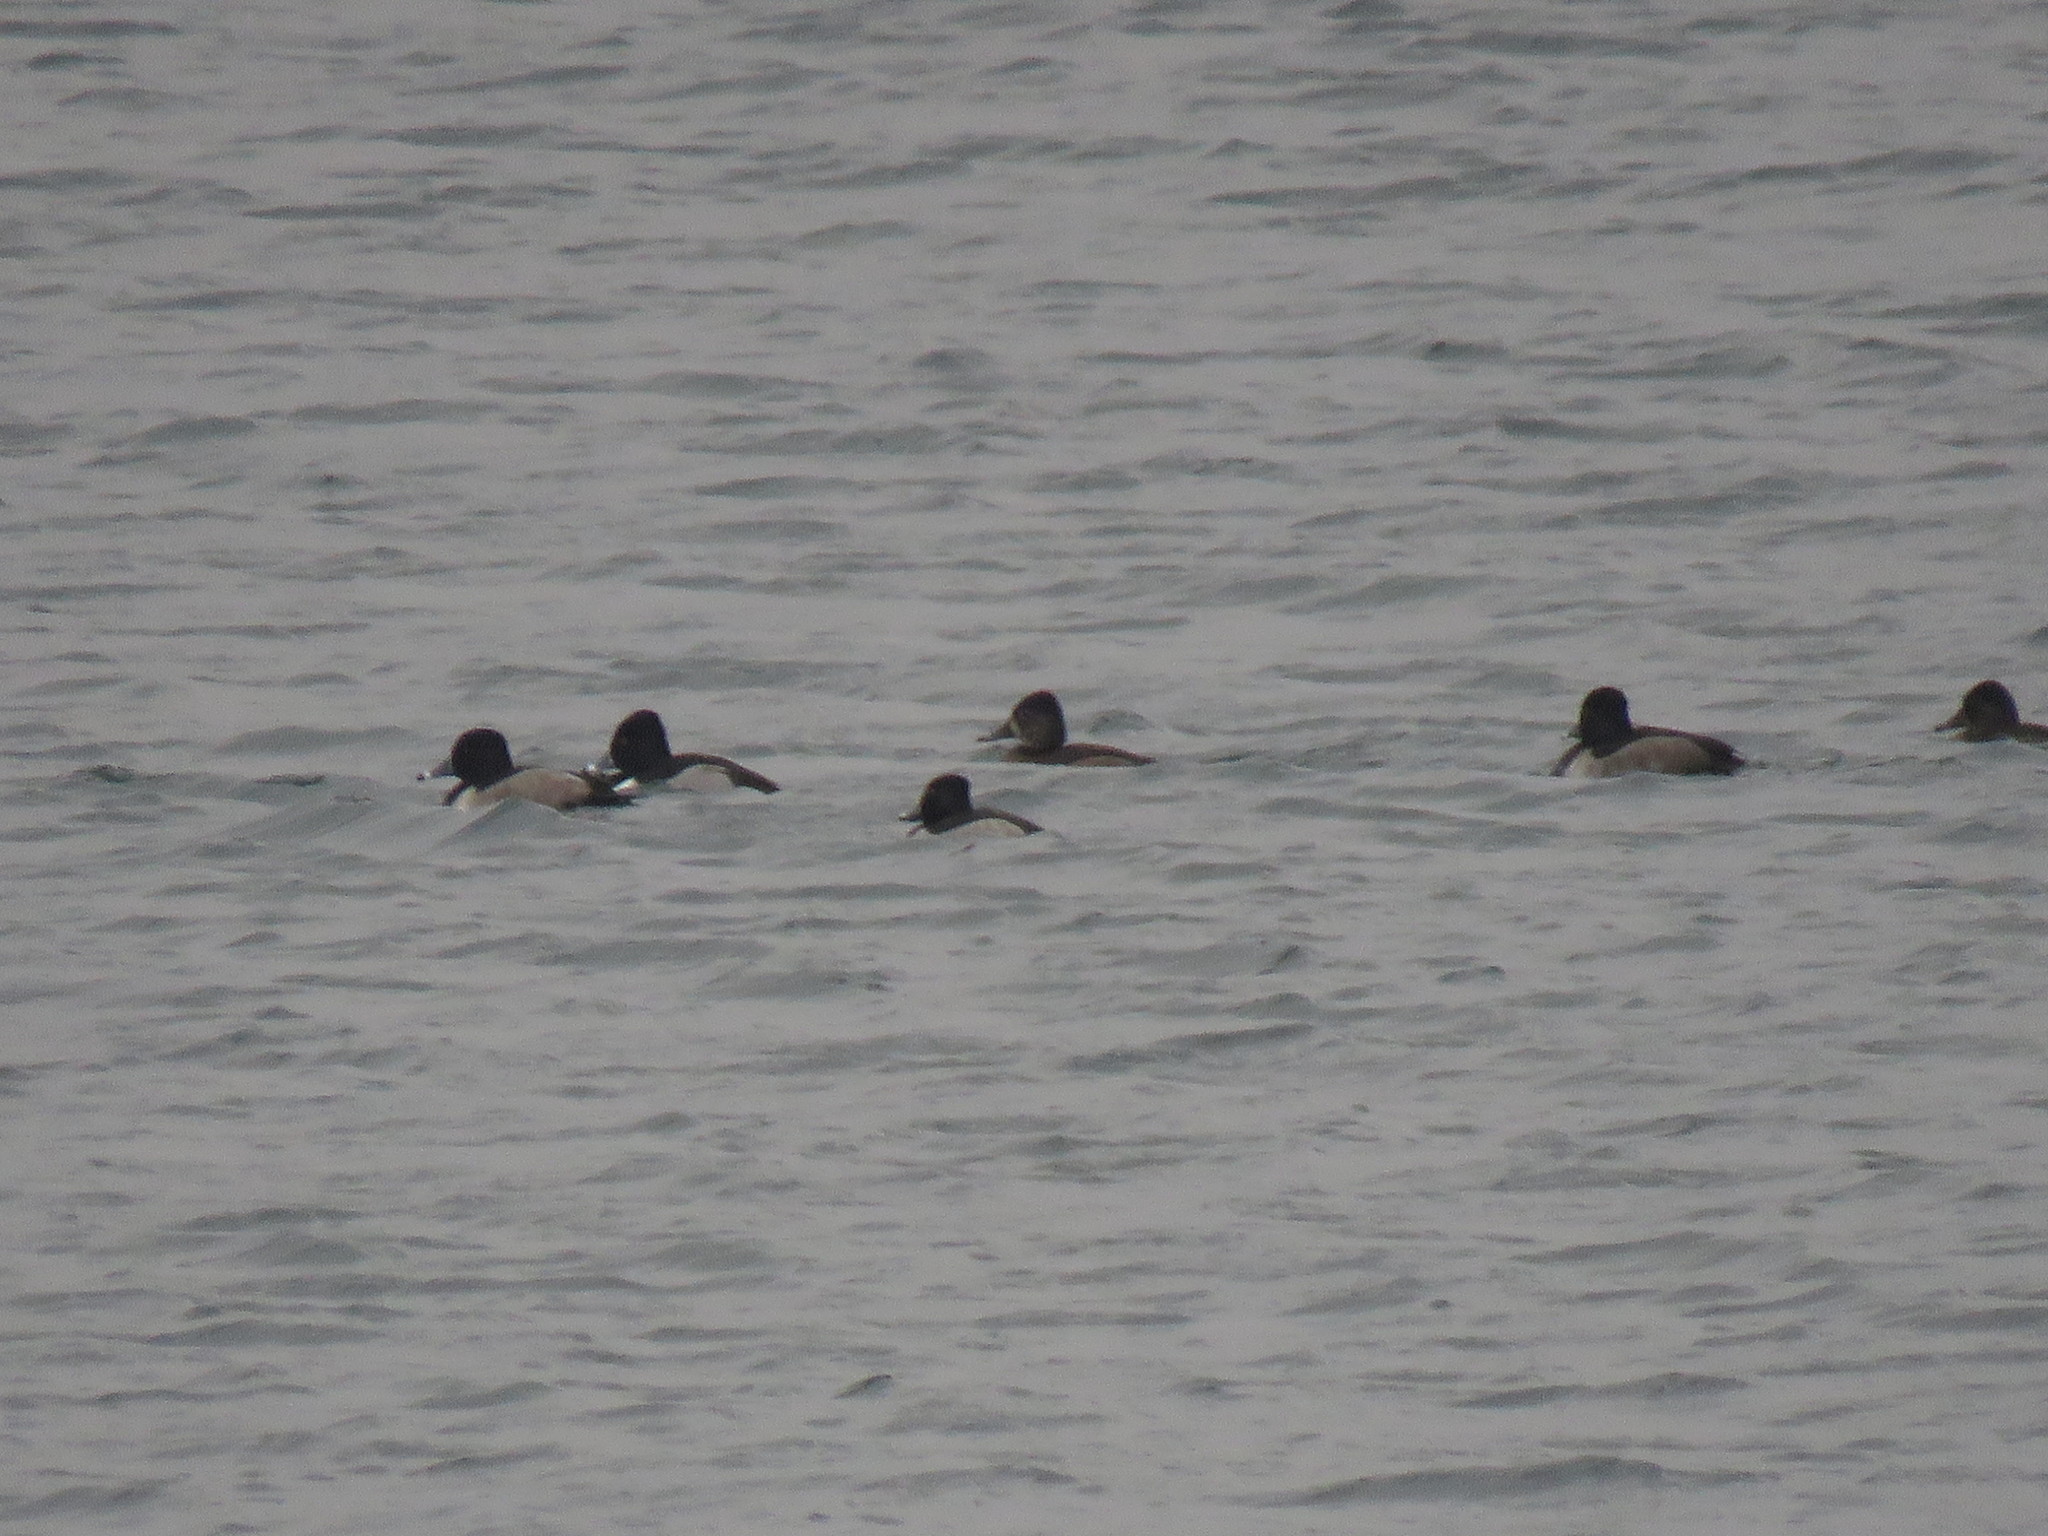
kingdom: Animalia
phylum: Chordata
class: Aves
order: Anseriformes
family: Anatidae
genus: Aythya
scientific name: Aythya collaris
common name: Ring-necked duck
